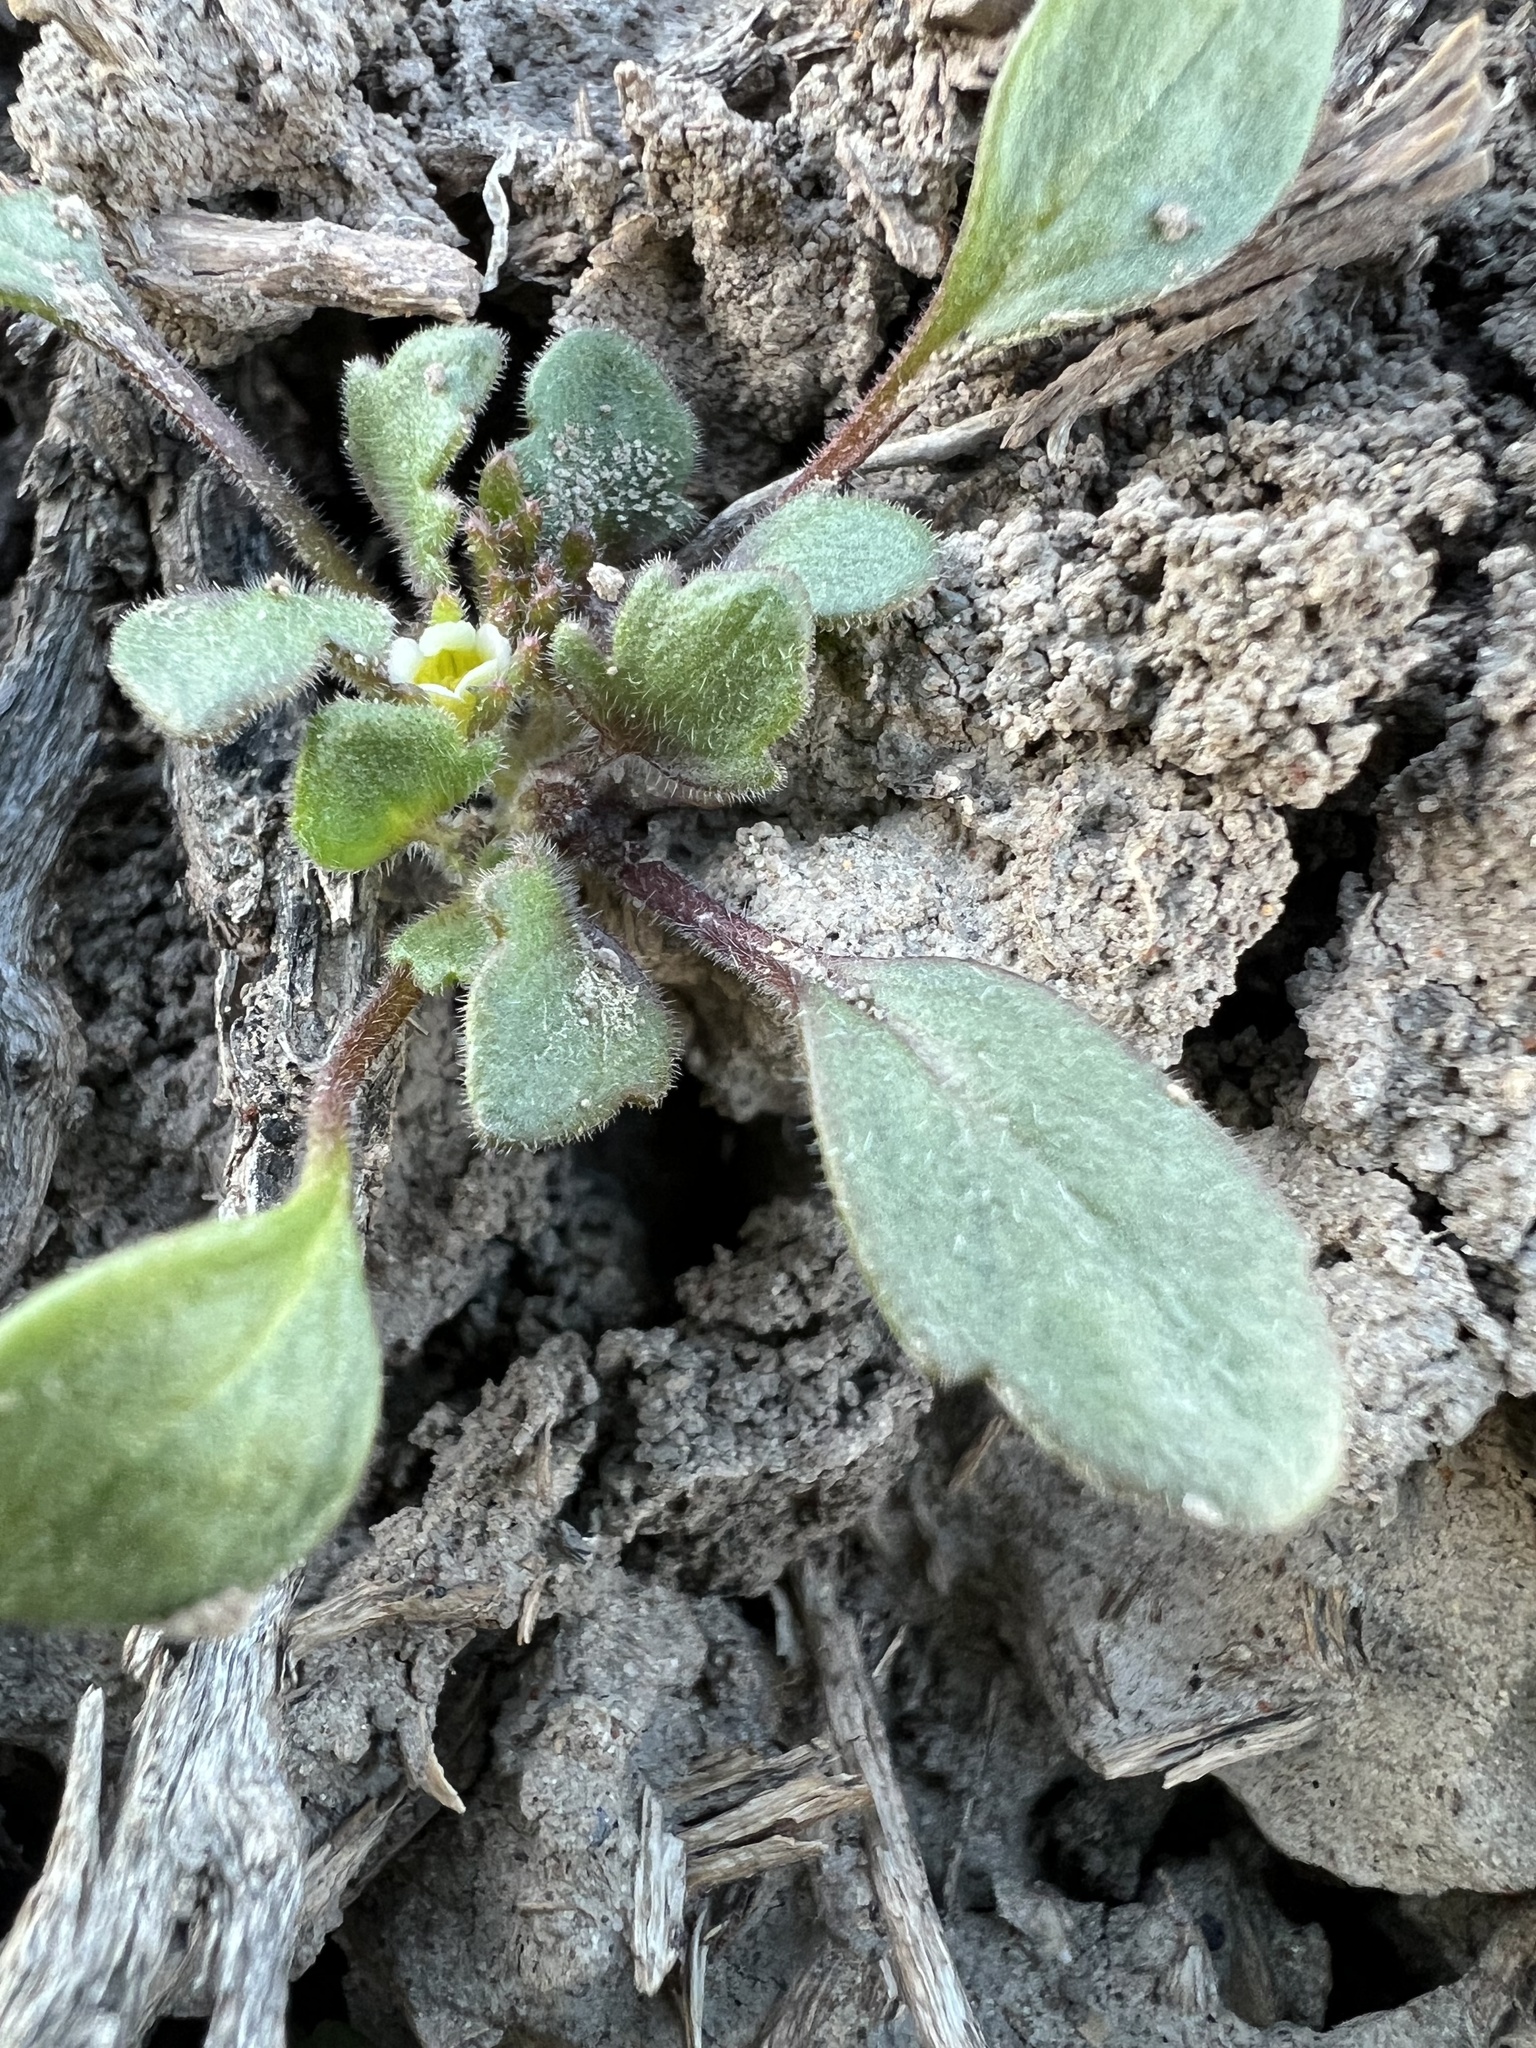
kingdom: Plantae
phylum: Tracheophyta
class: Magnoliopsida
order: Boraginales
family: Hydrophyllaceae
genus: Phacelia
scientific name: Phacelia scopulina
